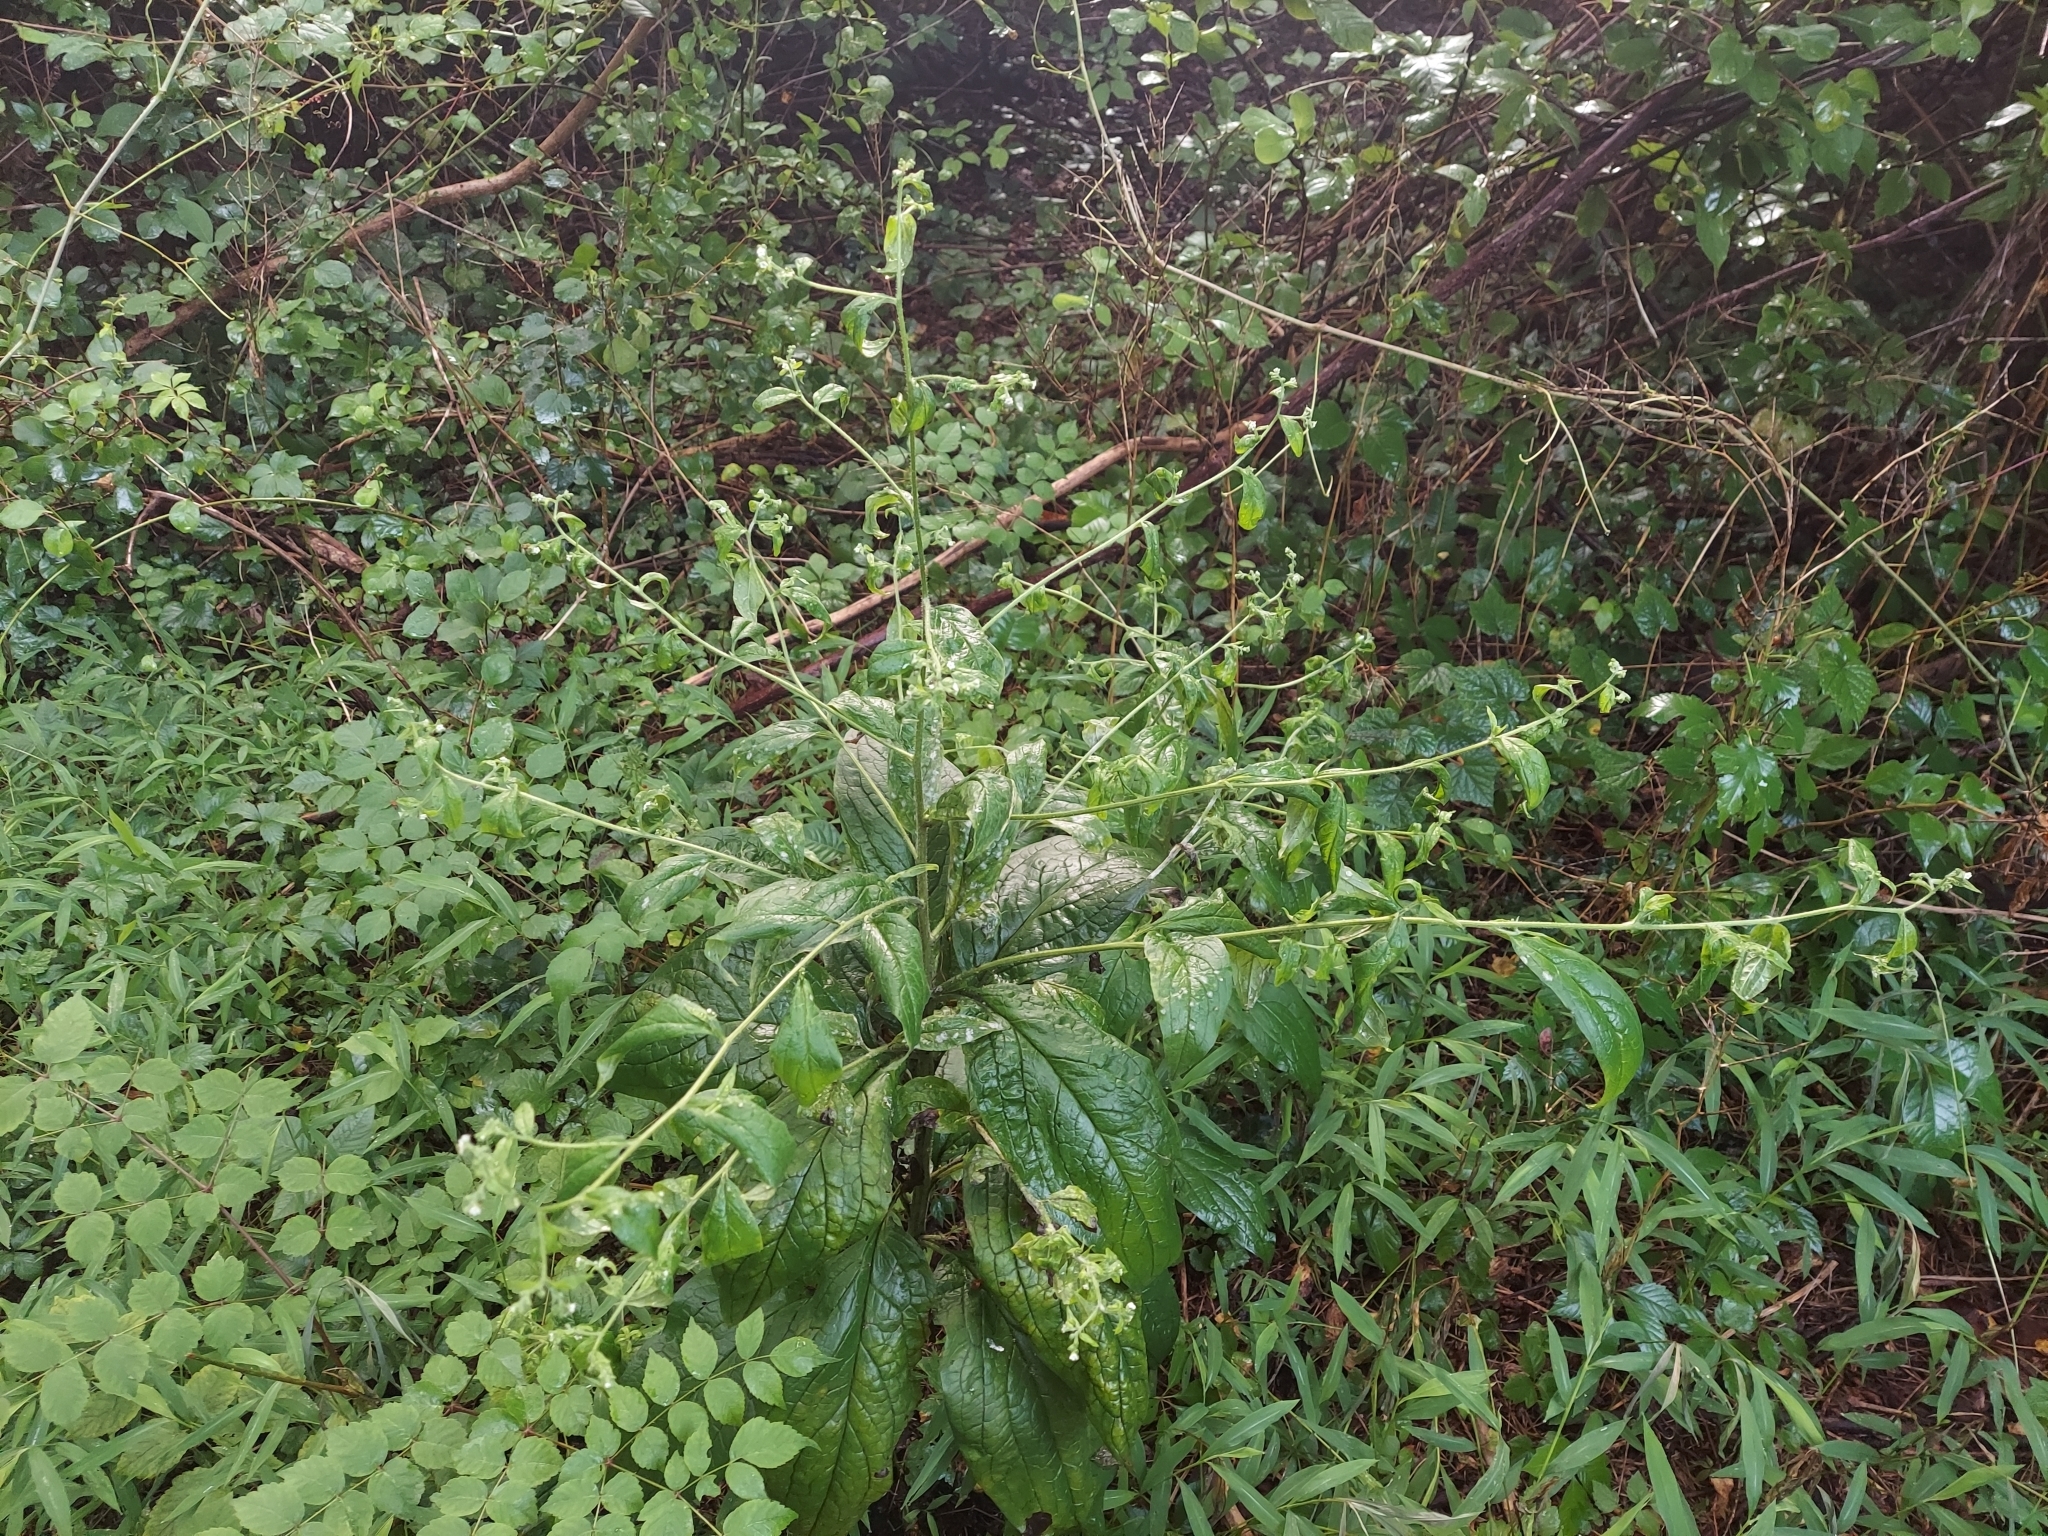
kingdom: Plantae
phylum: Tracheophyta
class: Magnoliopsida
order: Boraginales
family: Boraginaceae
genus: Hackelia
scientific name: Hackelia virginiana
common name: Beggar's-lice
